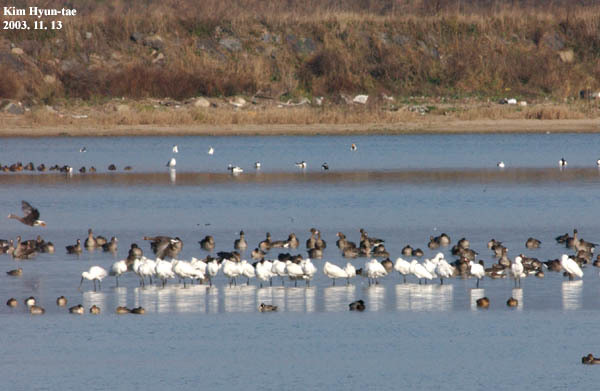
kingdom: Animalia
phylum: Chordata
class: Aves
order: Pelecaniformes
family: Threskiornithidae
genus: Platalea
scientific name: Platalea leucorodia
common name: Eurasian spoonbill
